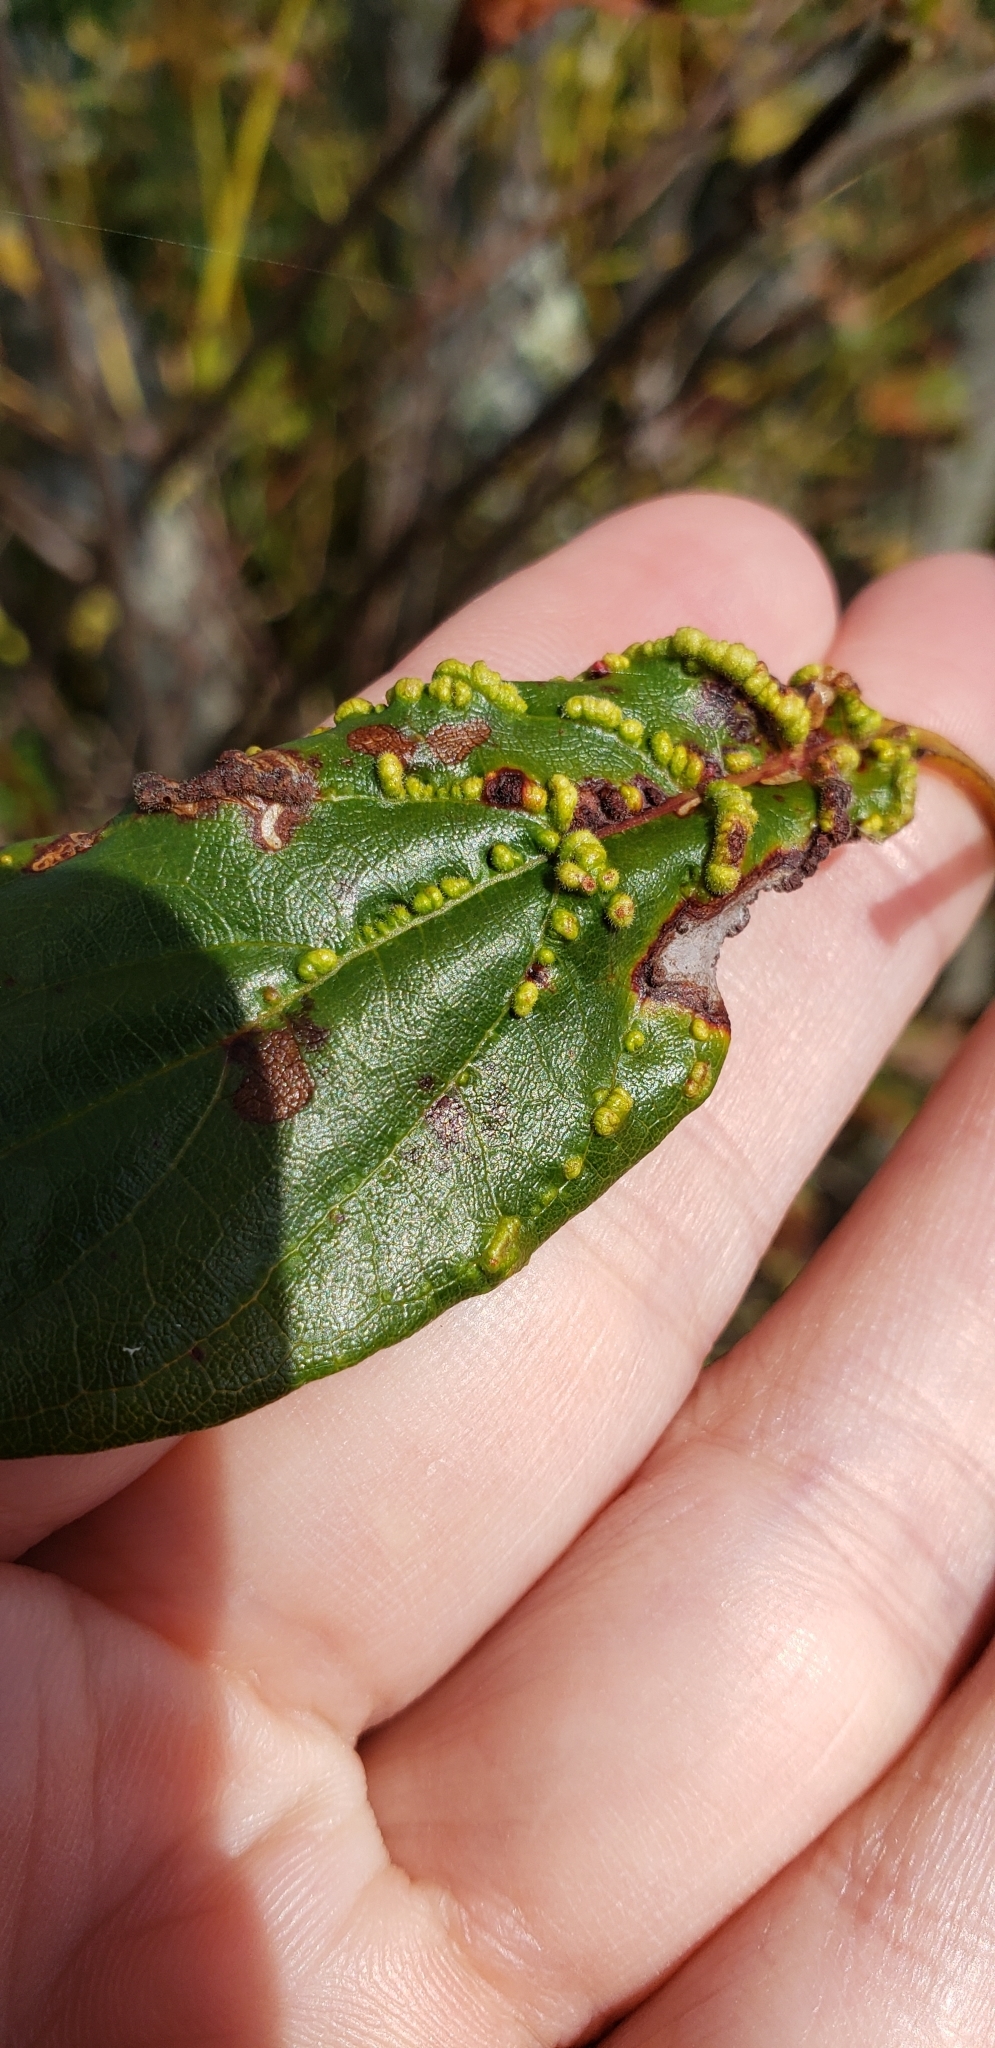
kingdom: Animalia
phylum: Arthropoda
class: Arachnida
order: Trombidiformes
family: Eriophyidae
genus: Aceria
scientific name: Aceria
